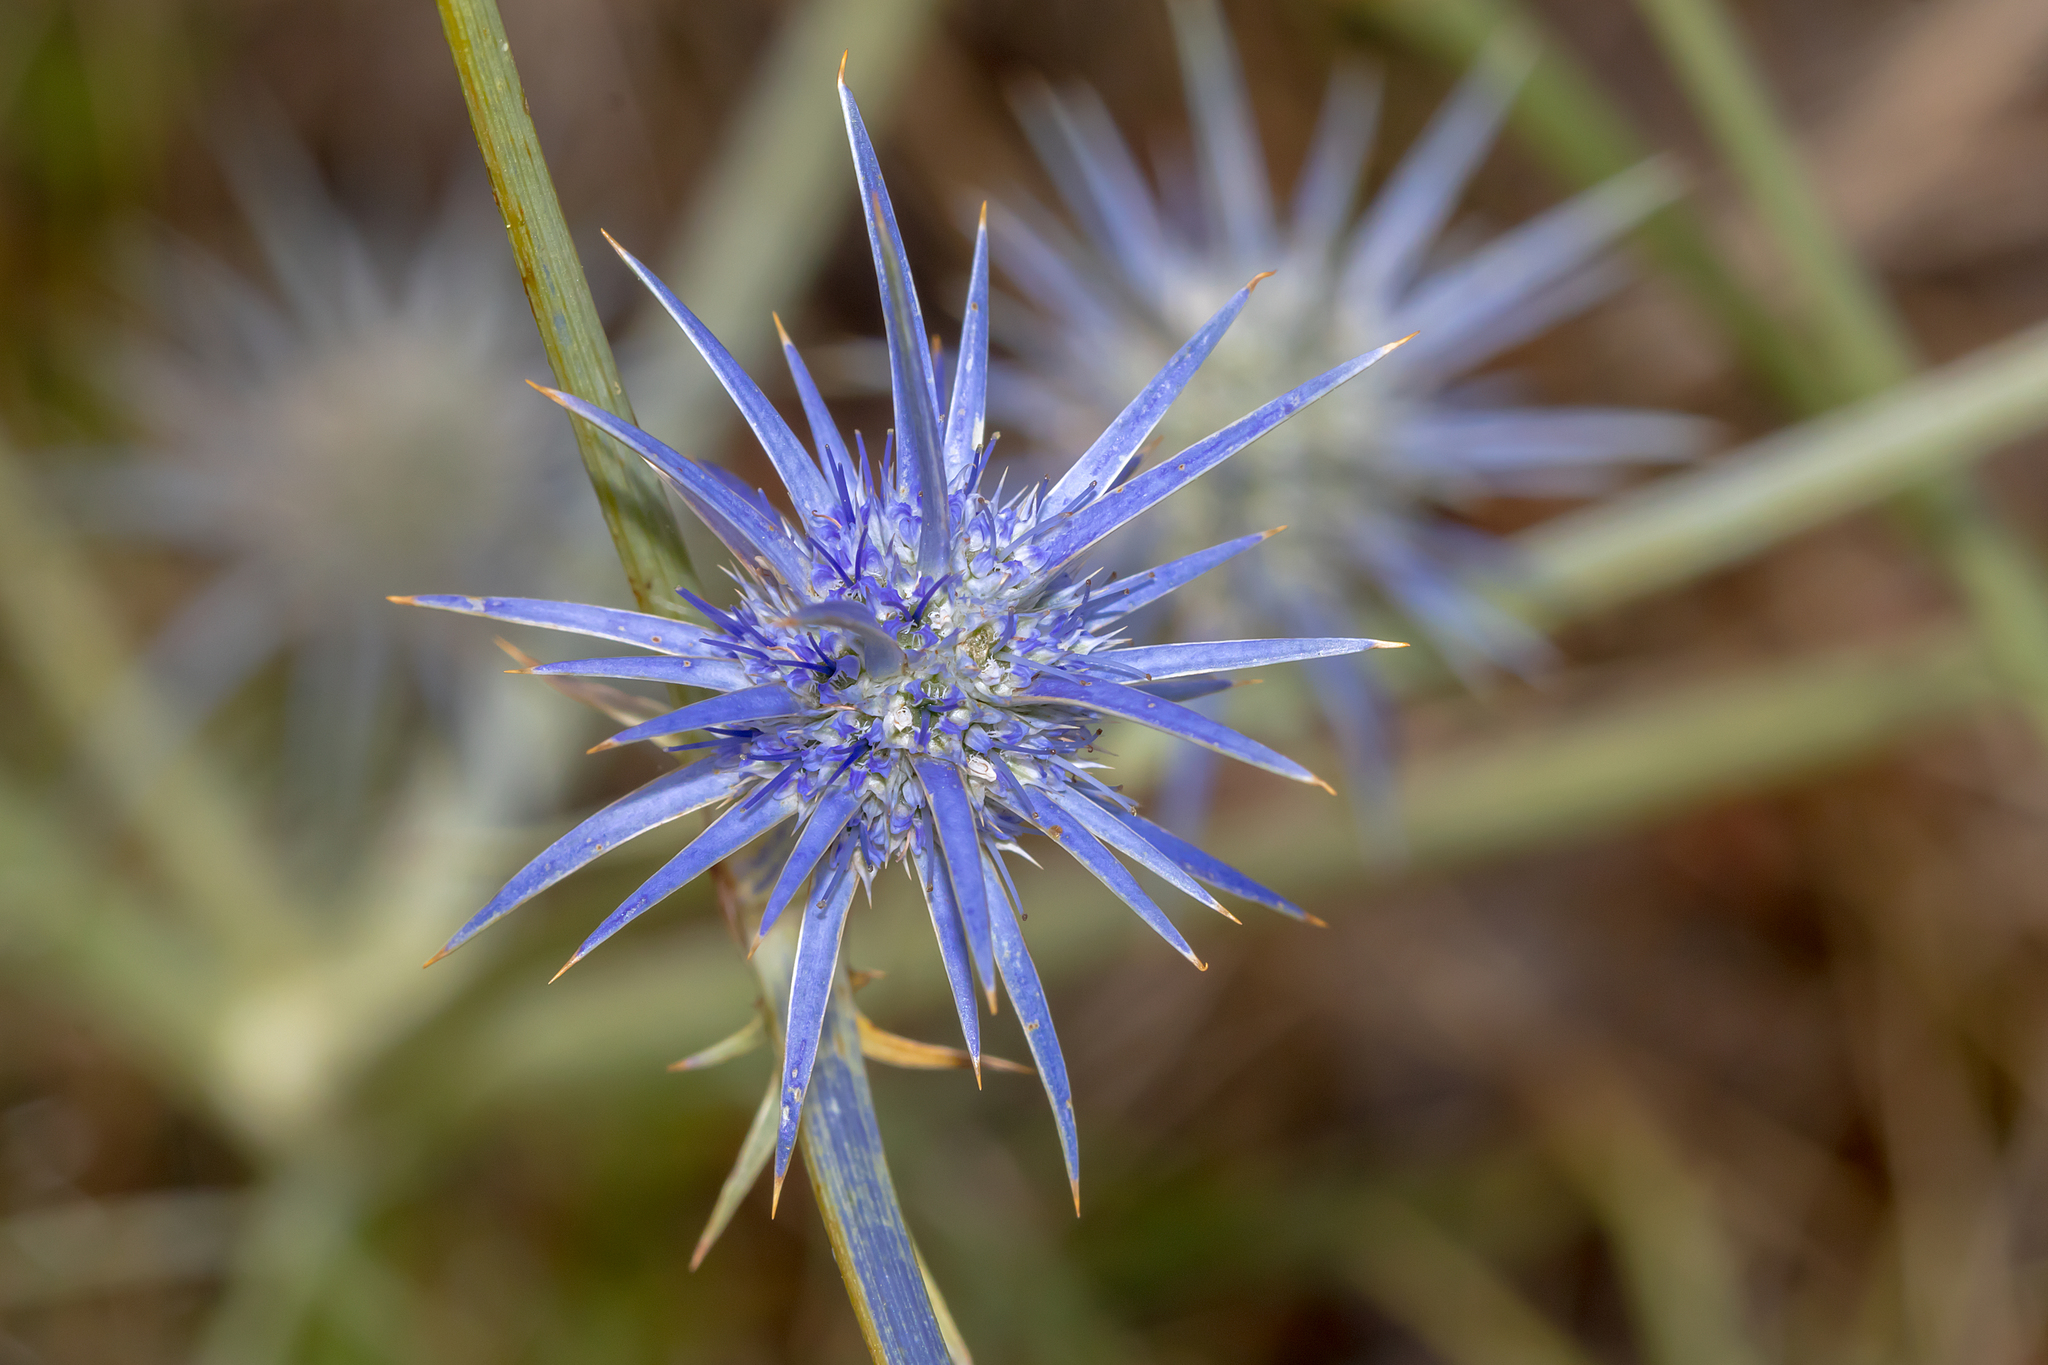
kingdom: Plantae
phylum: Tracheophyta
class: Magnoliopsida
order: Apiales
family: Apiaceae
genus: Eryngium
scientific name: Eryngium ovinum
